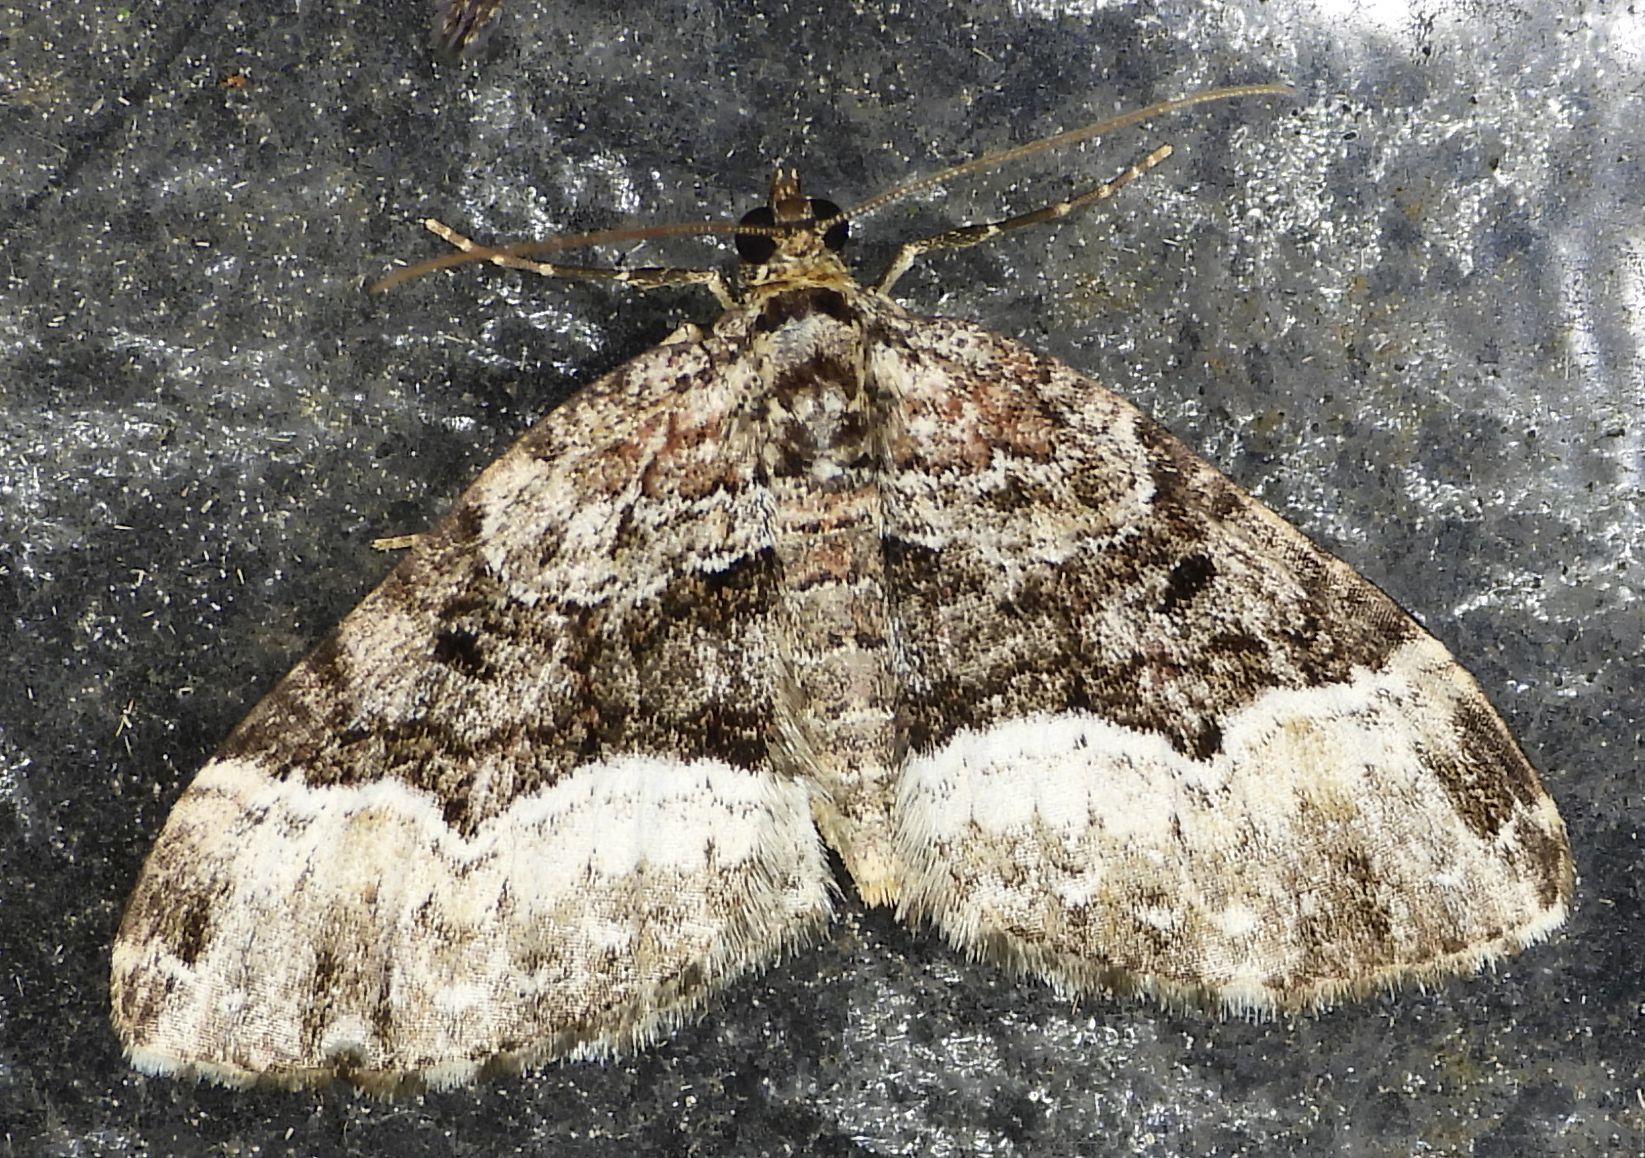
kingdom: Animalia
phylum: Arthropoda
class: Insecta
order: Lepidoptera
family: Geometridae
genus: Euphyia
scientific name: Euphyia intermediata
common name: Sharp-angled carpet
